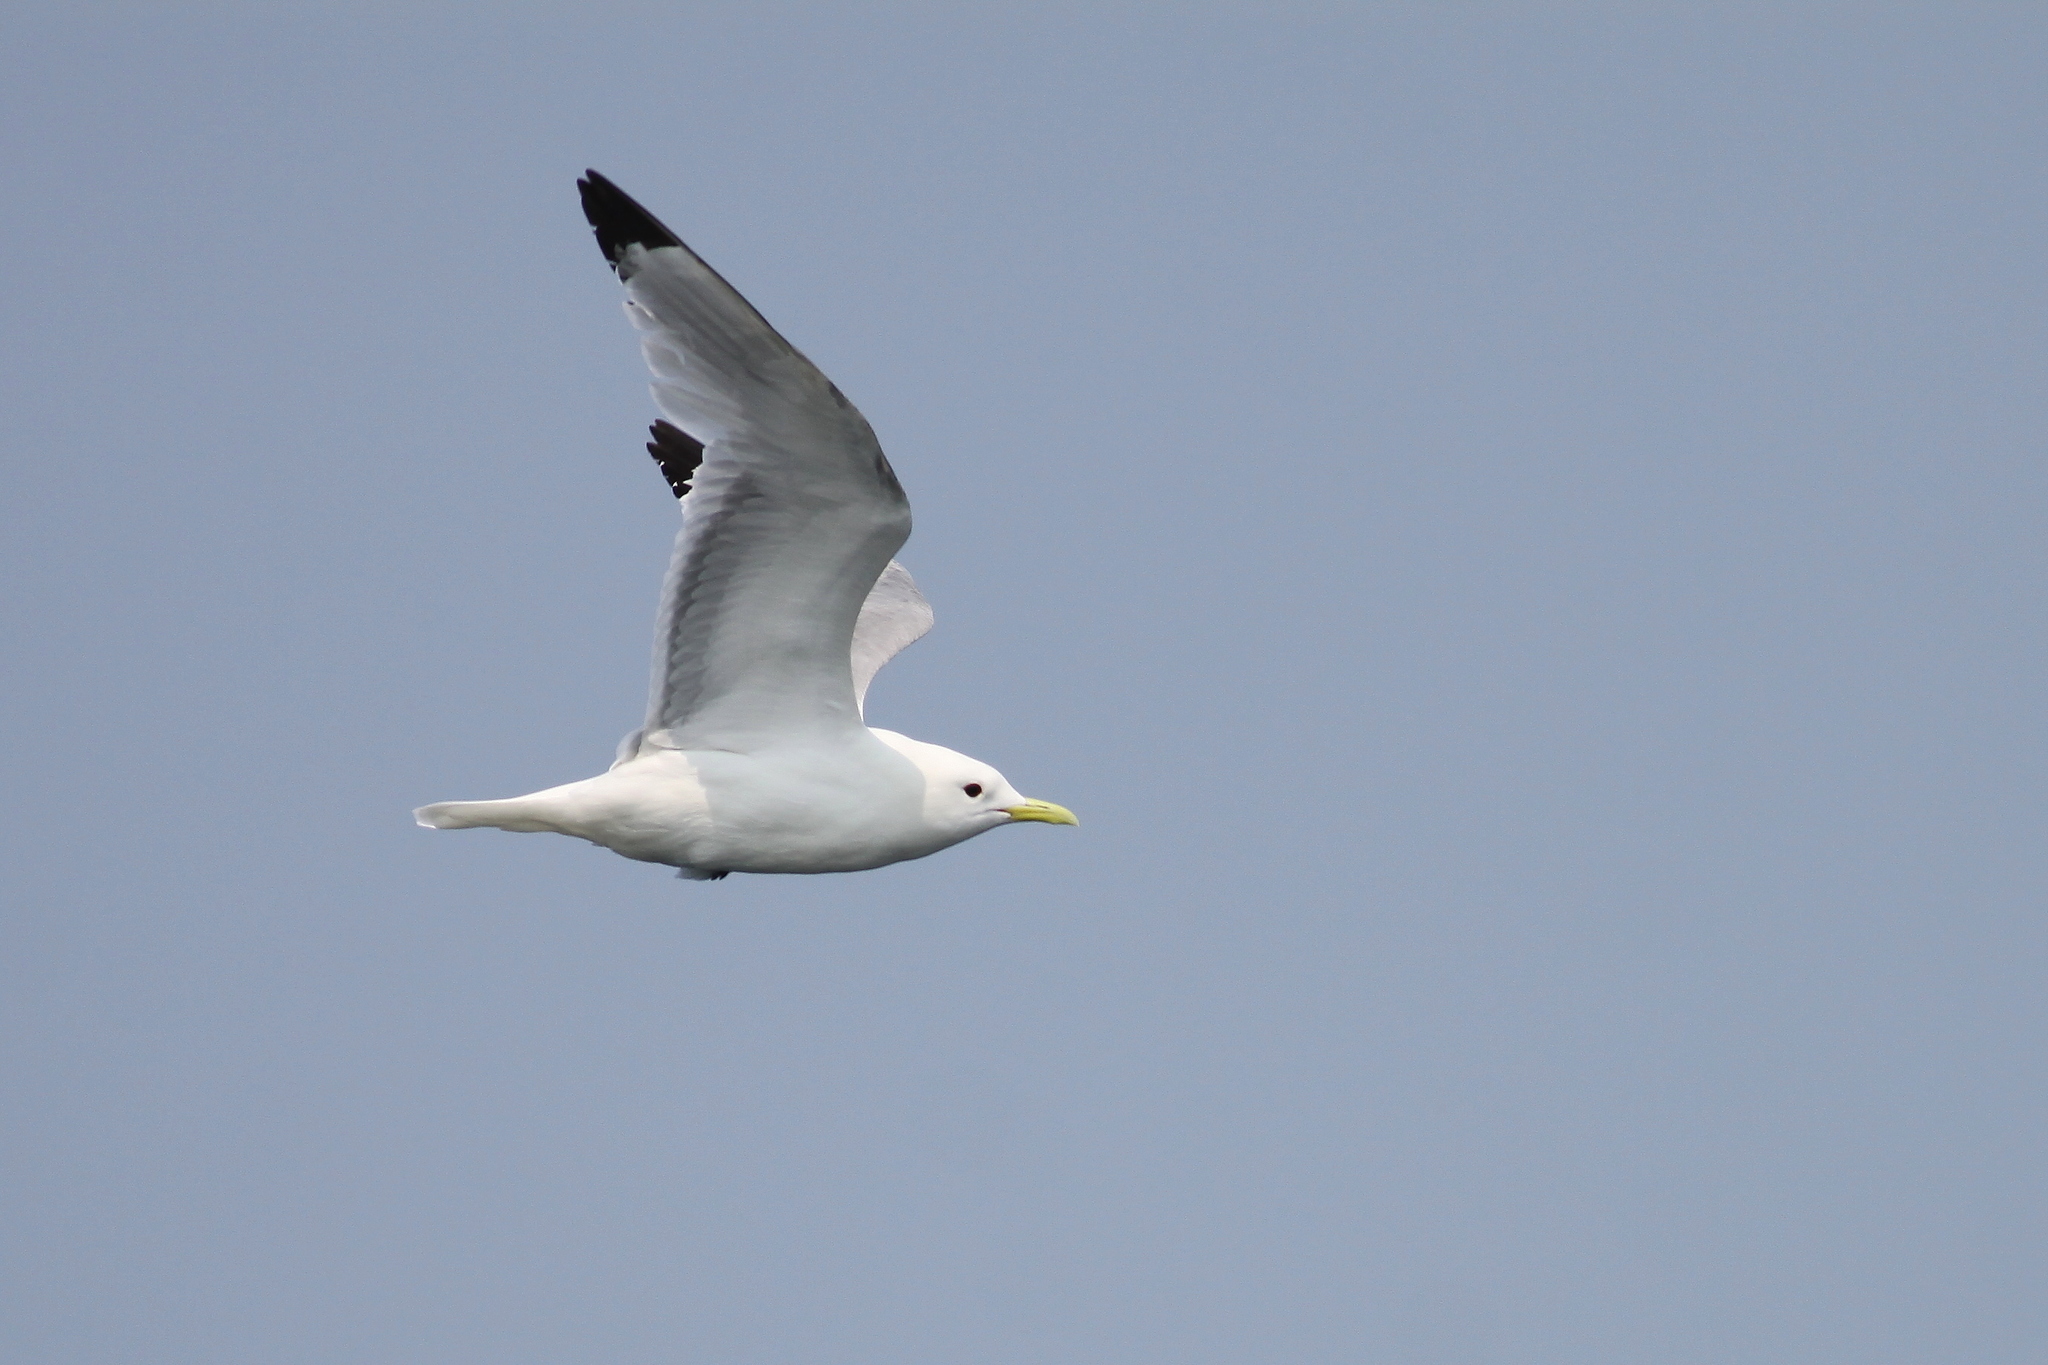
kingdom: Animalia
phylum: Chordata
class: Aves
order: Charadriiformes
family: Laridae
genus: Rissa
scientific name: Rissa tridactyla
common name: Black-legged kittiwake
